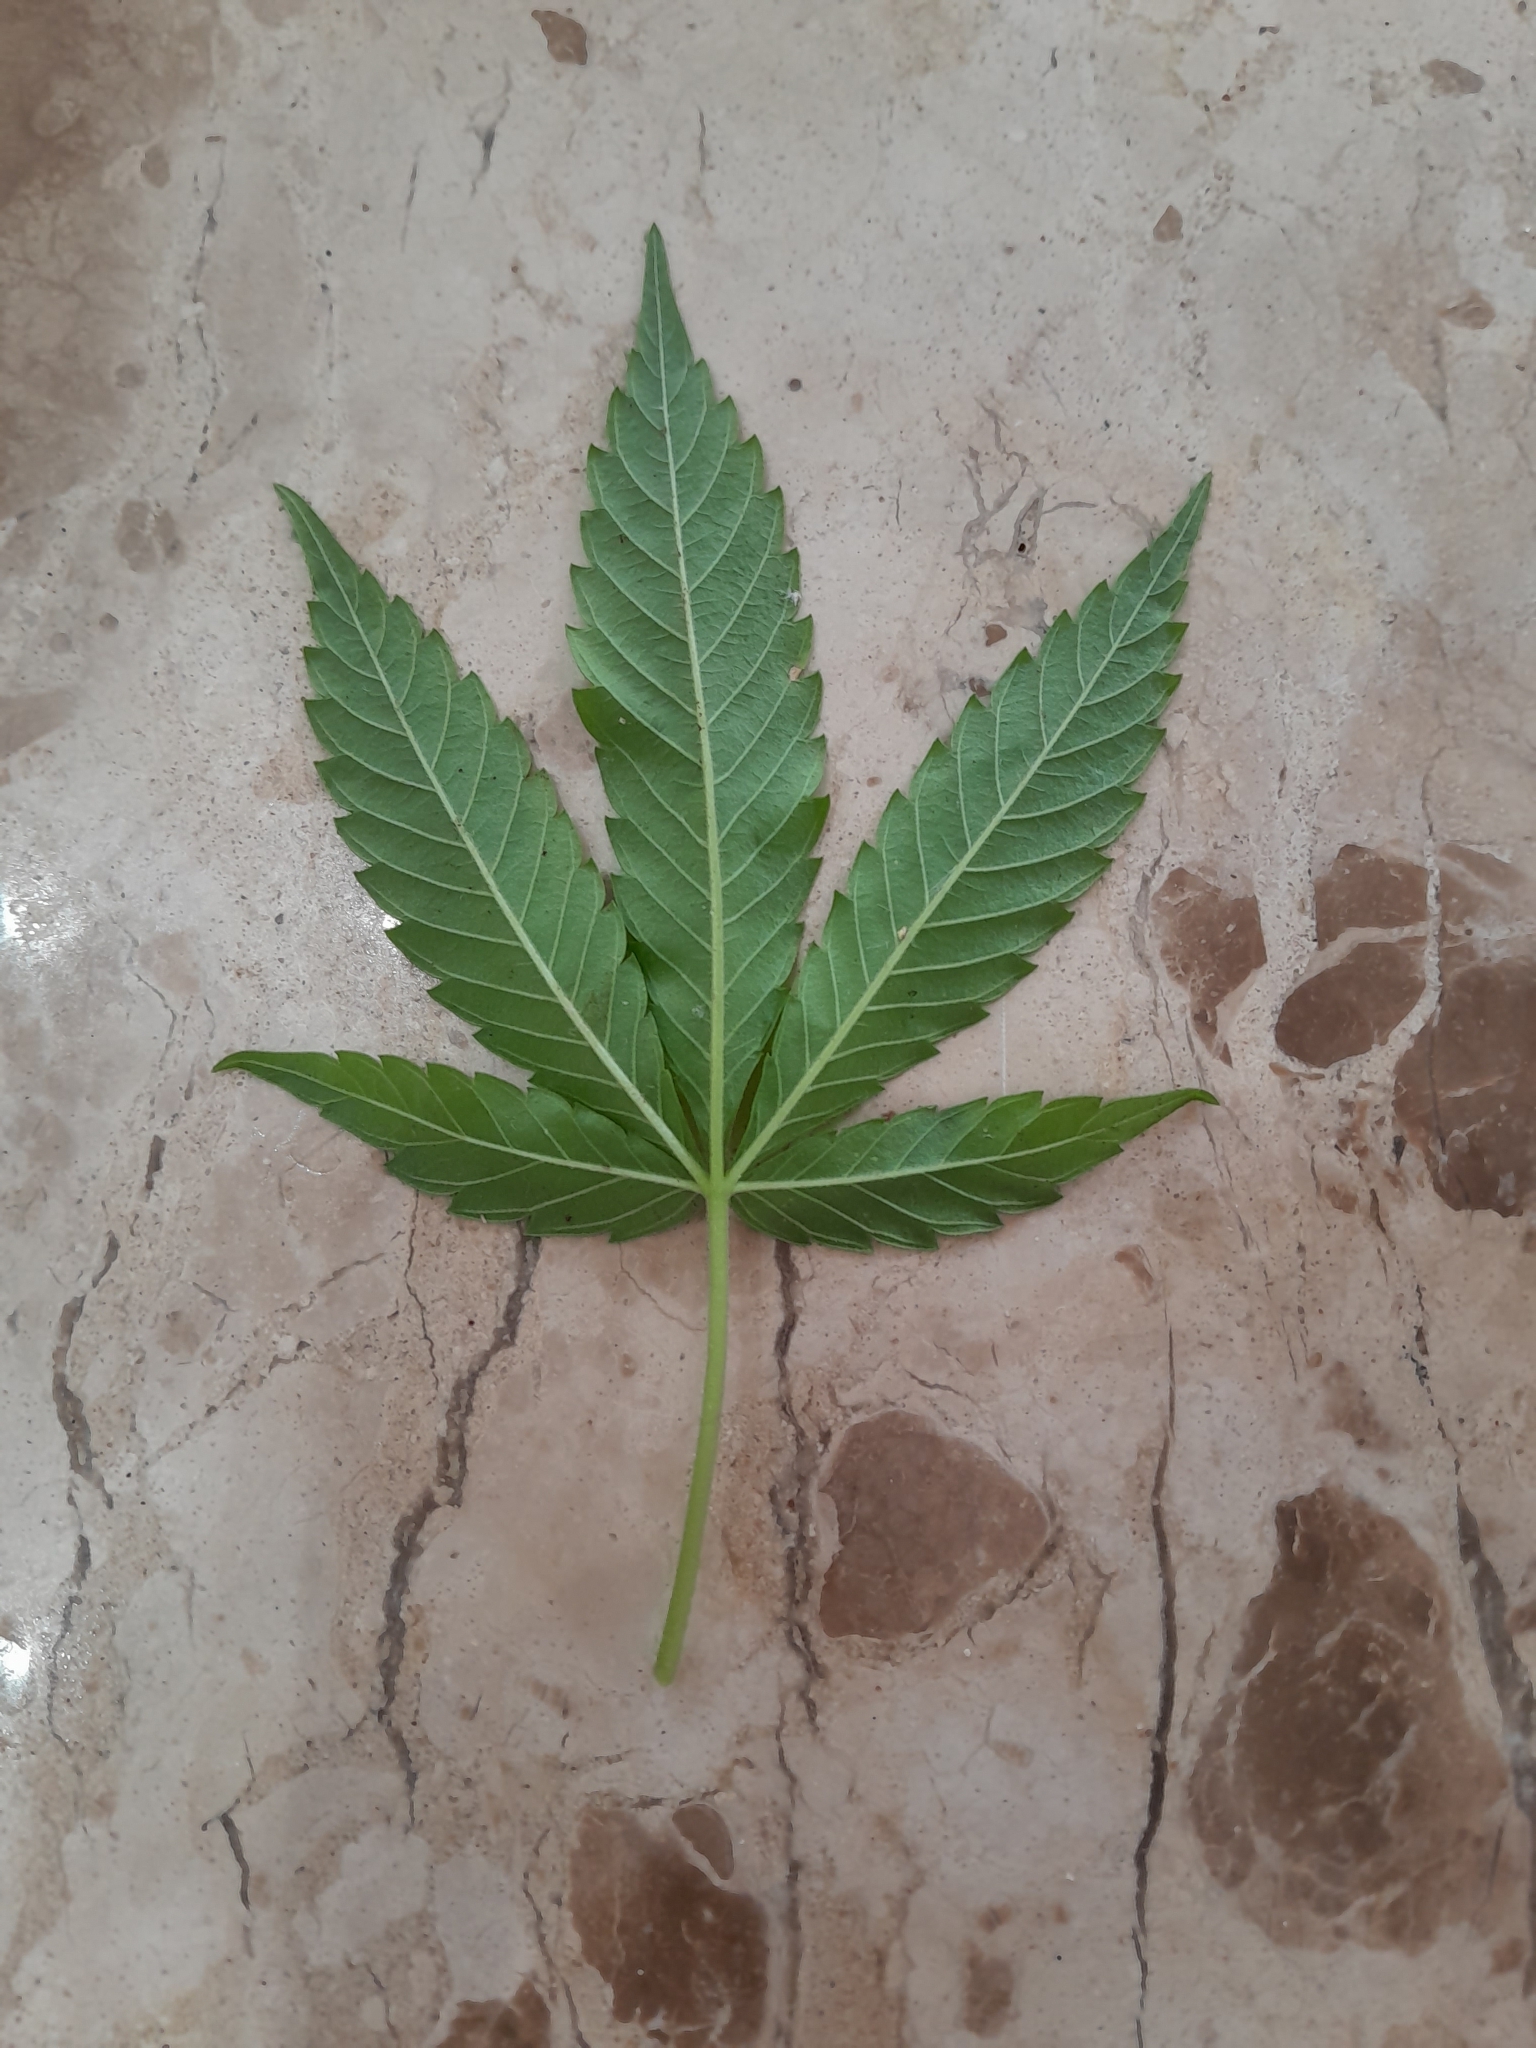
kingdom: Plantae
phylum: Tracheophyta
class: Magnoliopsida
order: Rosales
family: Cannabaceae
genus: Cannabis
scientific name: Cannabis sativa
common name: Hemp
